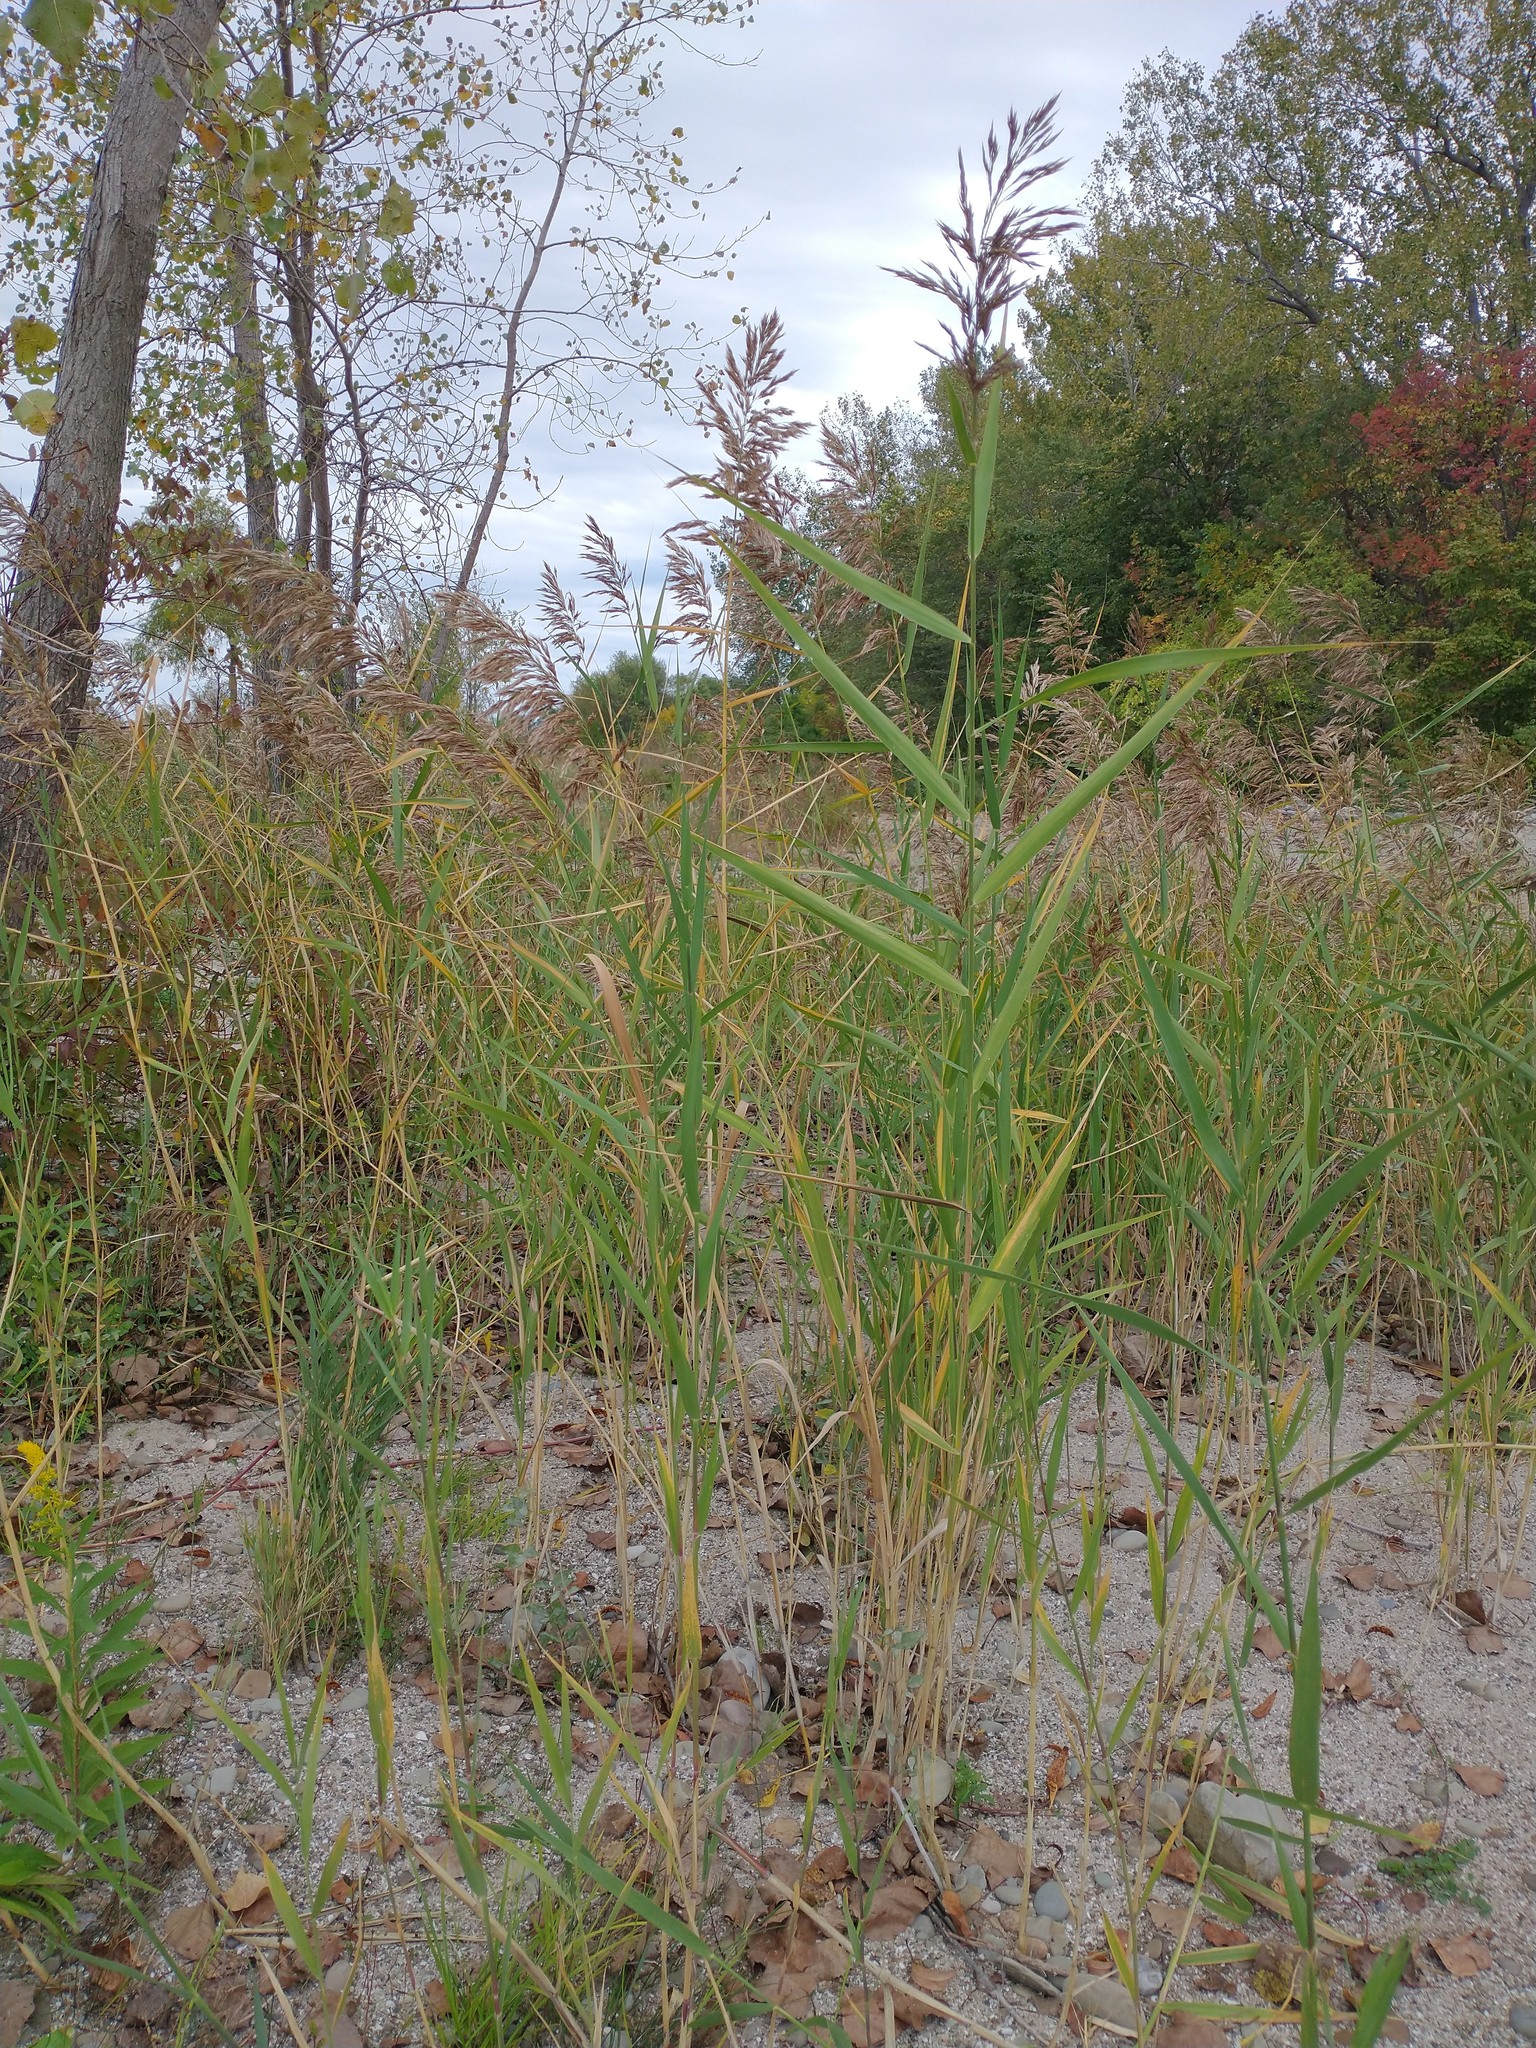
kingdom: Plantae
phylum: Tracheophyta
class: Liliopsida
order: Poales
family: Poaceae
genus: Phragmites
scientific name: Phragmites australis
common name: Common reed
